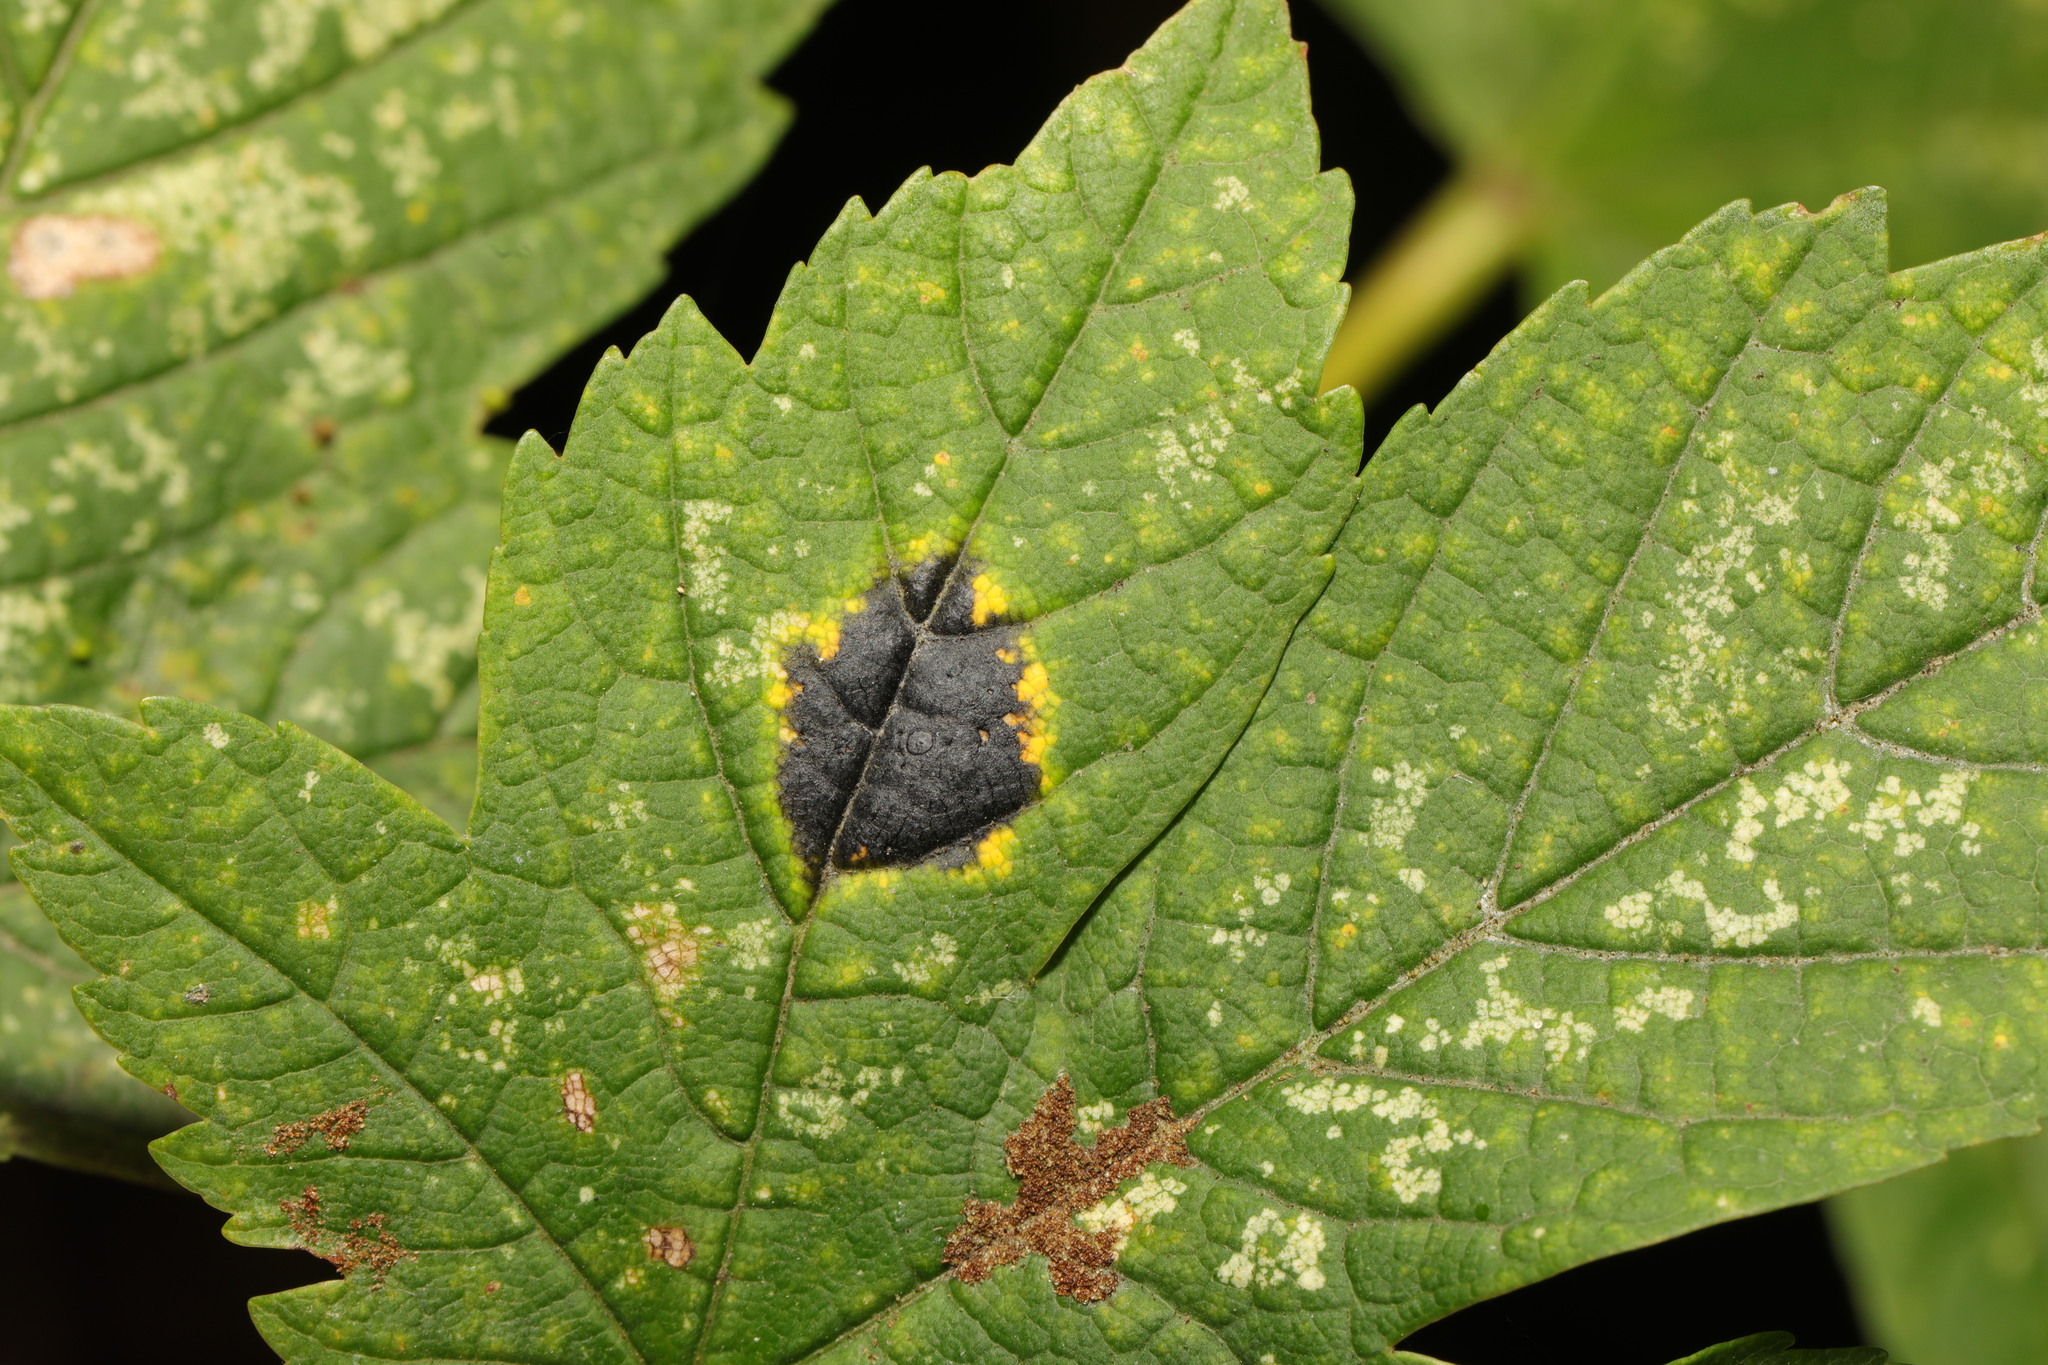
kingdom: Fungi
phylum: Ascomycota
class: Leotiomycetes
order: Rhytismatales
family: Rhytismataceae
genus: Rhytisma
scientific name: Rhytisma acerinum
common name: European tar spot
